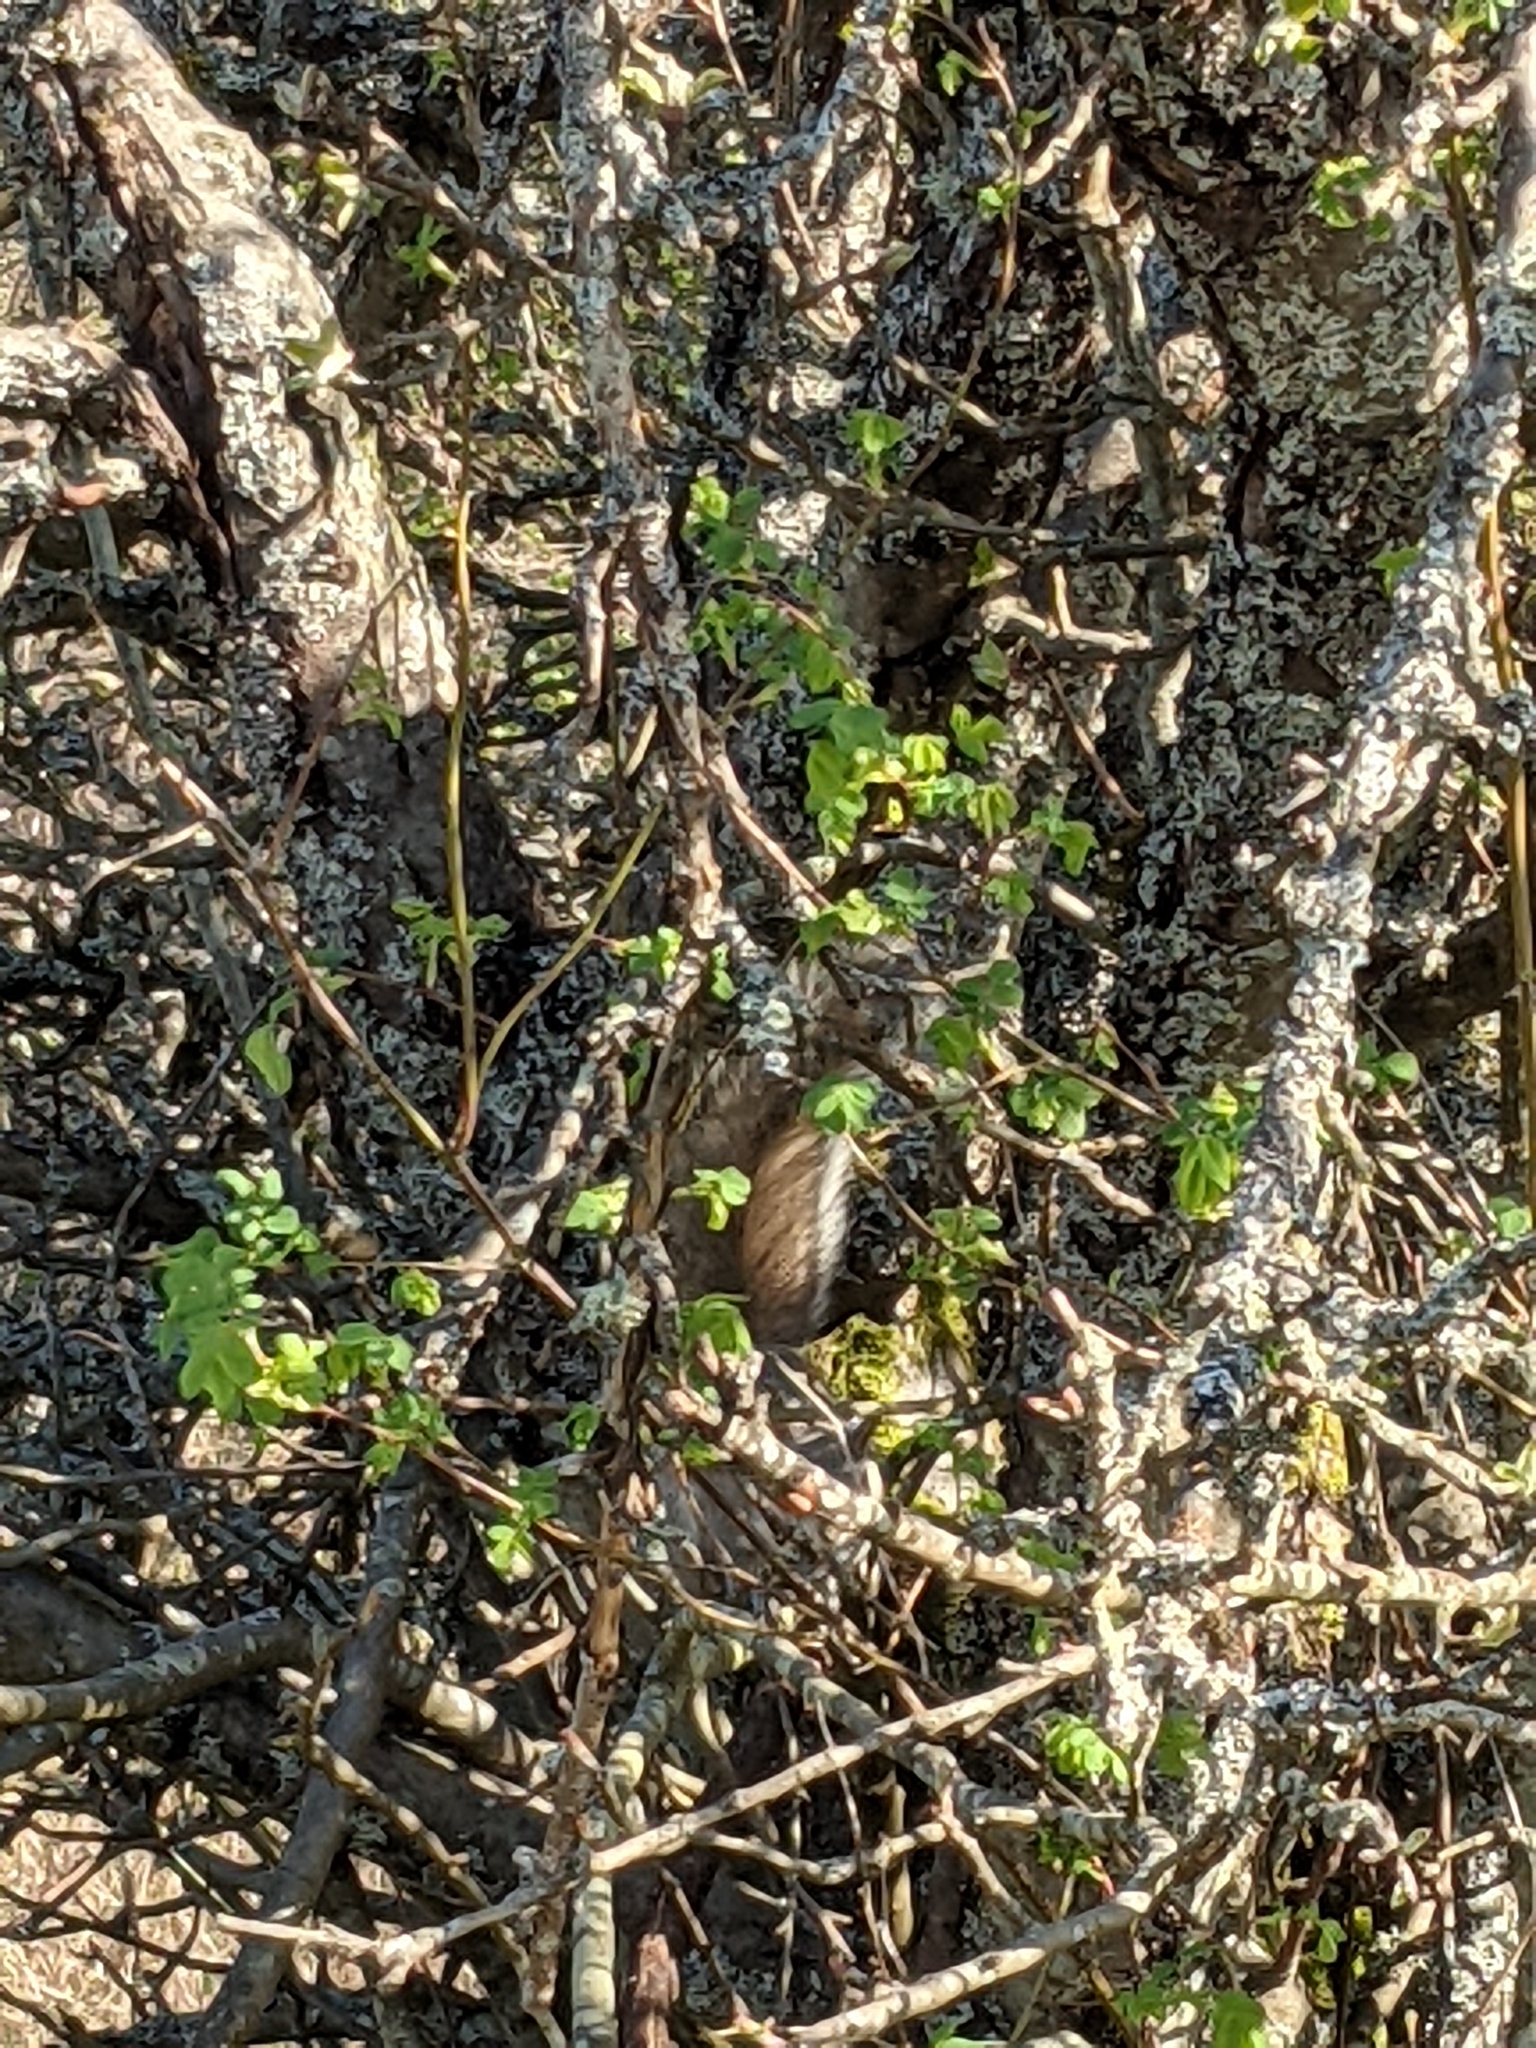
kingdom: Animalia
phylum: Chordata
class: Mammalia
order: Rodentia
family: Sciuridae
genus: Sciurus
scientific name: Sciurus carolinensis
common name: Eastern gray squirrel
